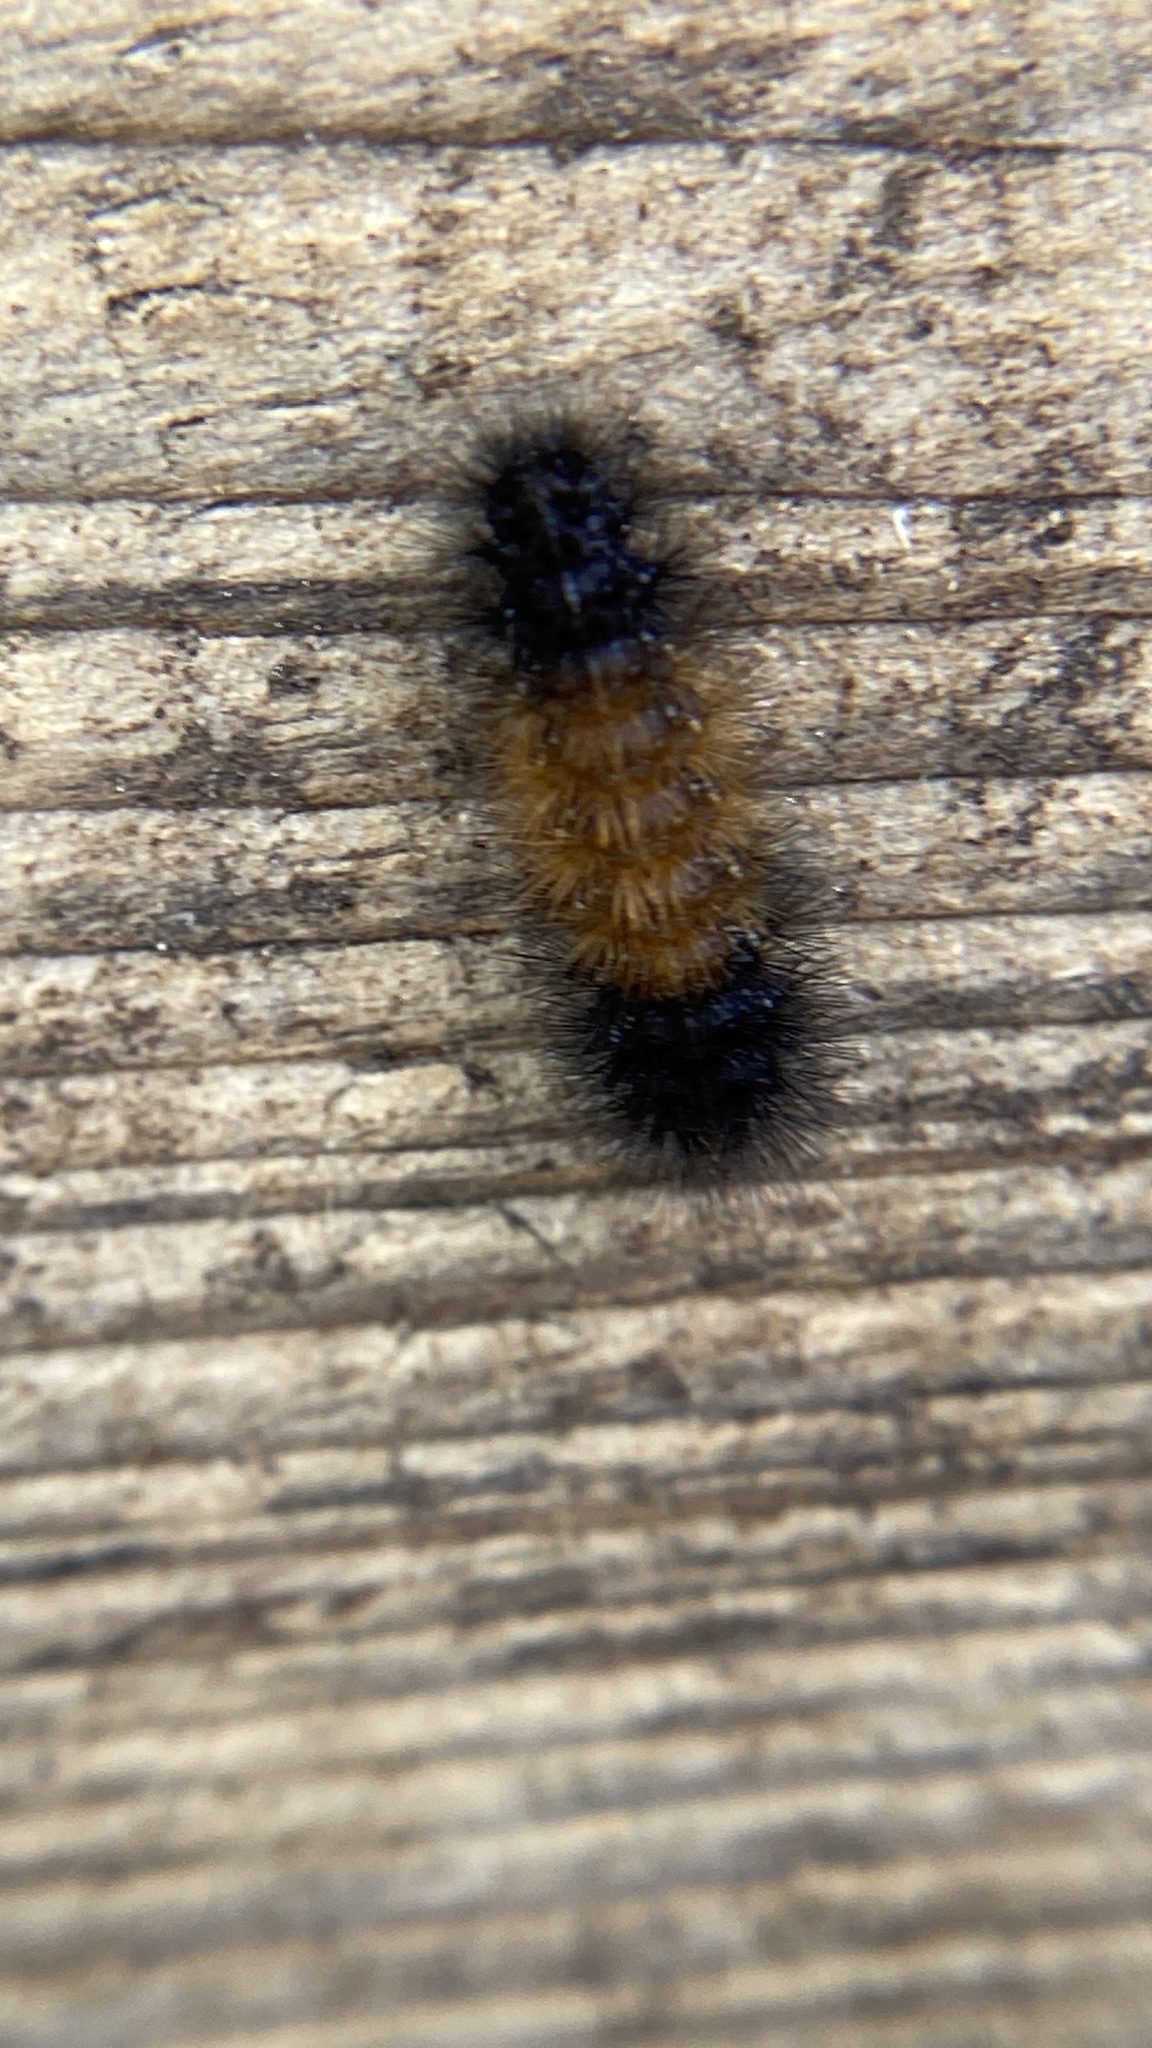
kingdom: Animalia
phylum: Arthropoda
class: Insecta
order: Lepidoptera
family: Erebidae
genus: Pyrrharctia
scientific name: Pyrrharctia isabella
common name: Isabella tiger moth
